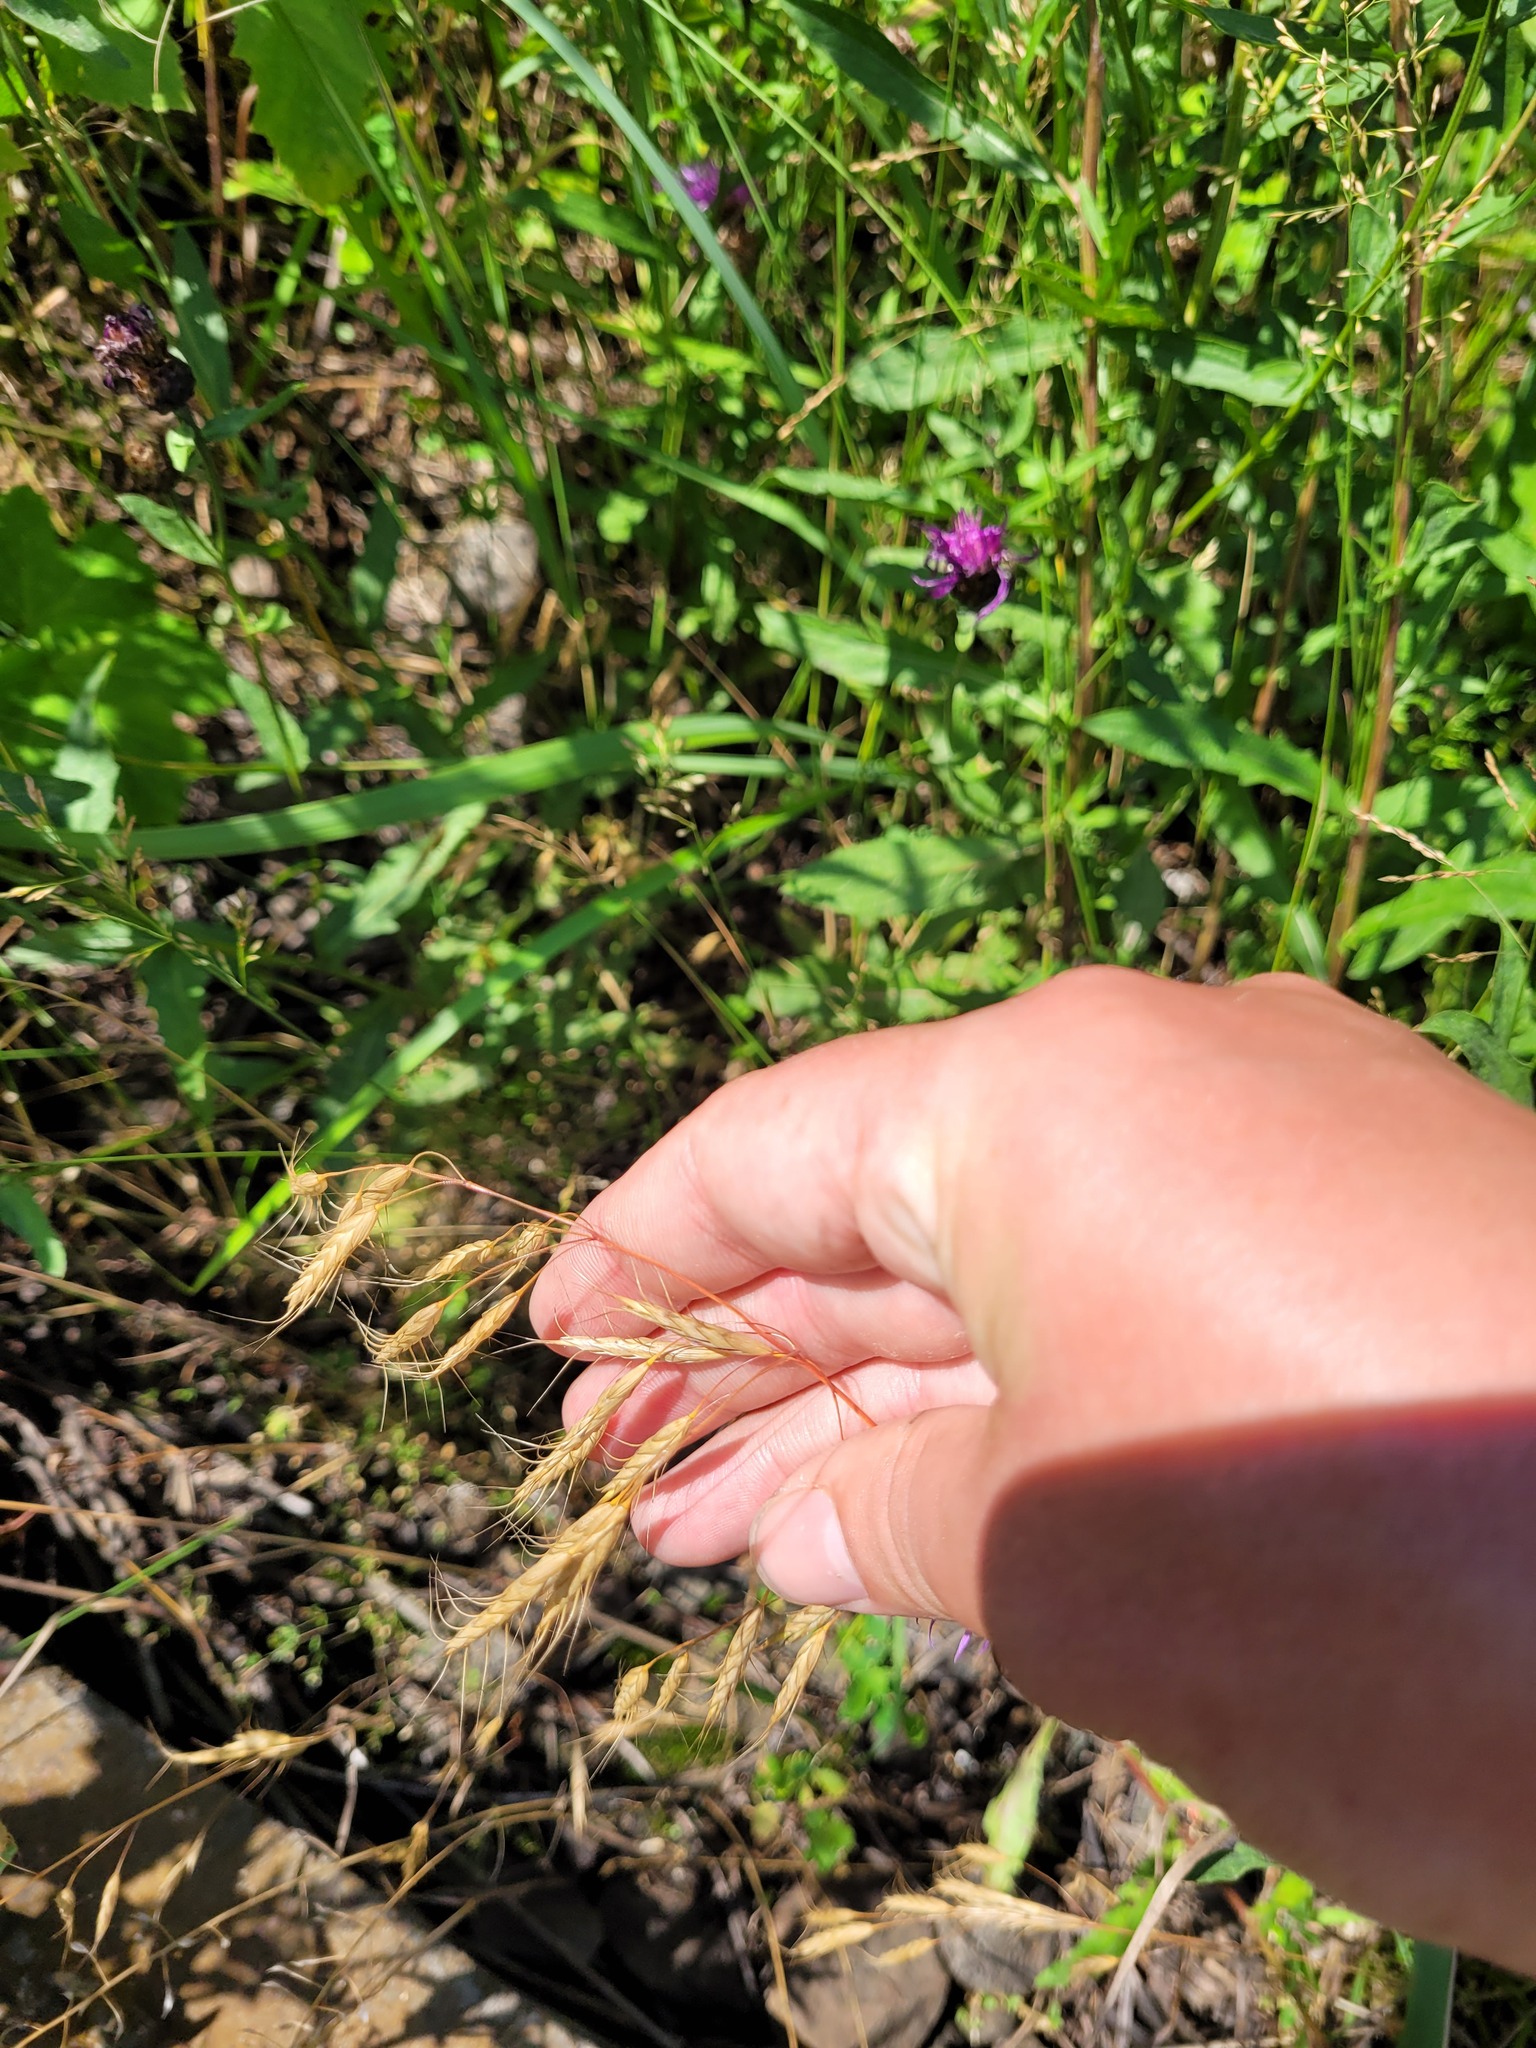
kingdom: Plantae
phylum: Tracheophyta
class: Liliopsida
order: Poales
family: Poaceae
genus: Bromus
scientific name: Bromus japonicus
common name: Japanese brome
